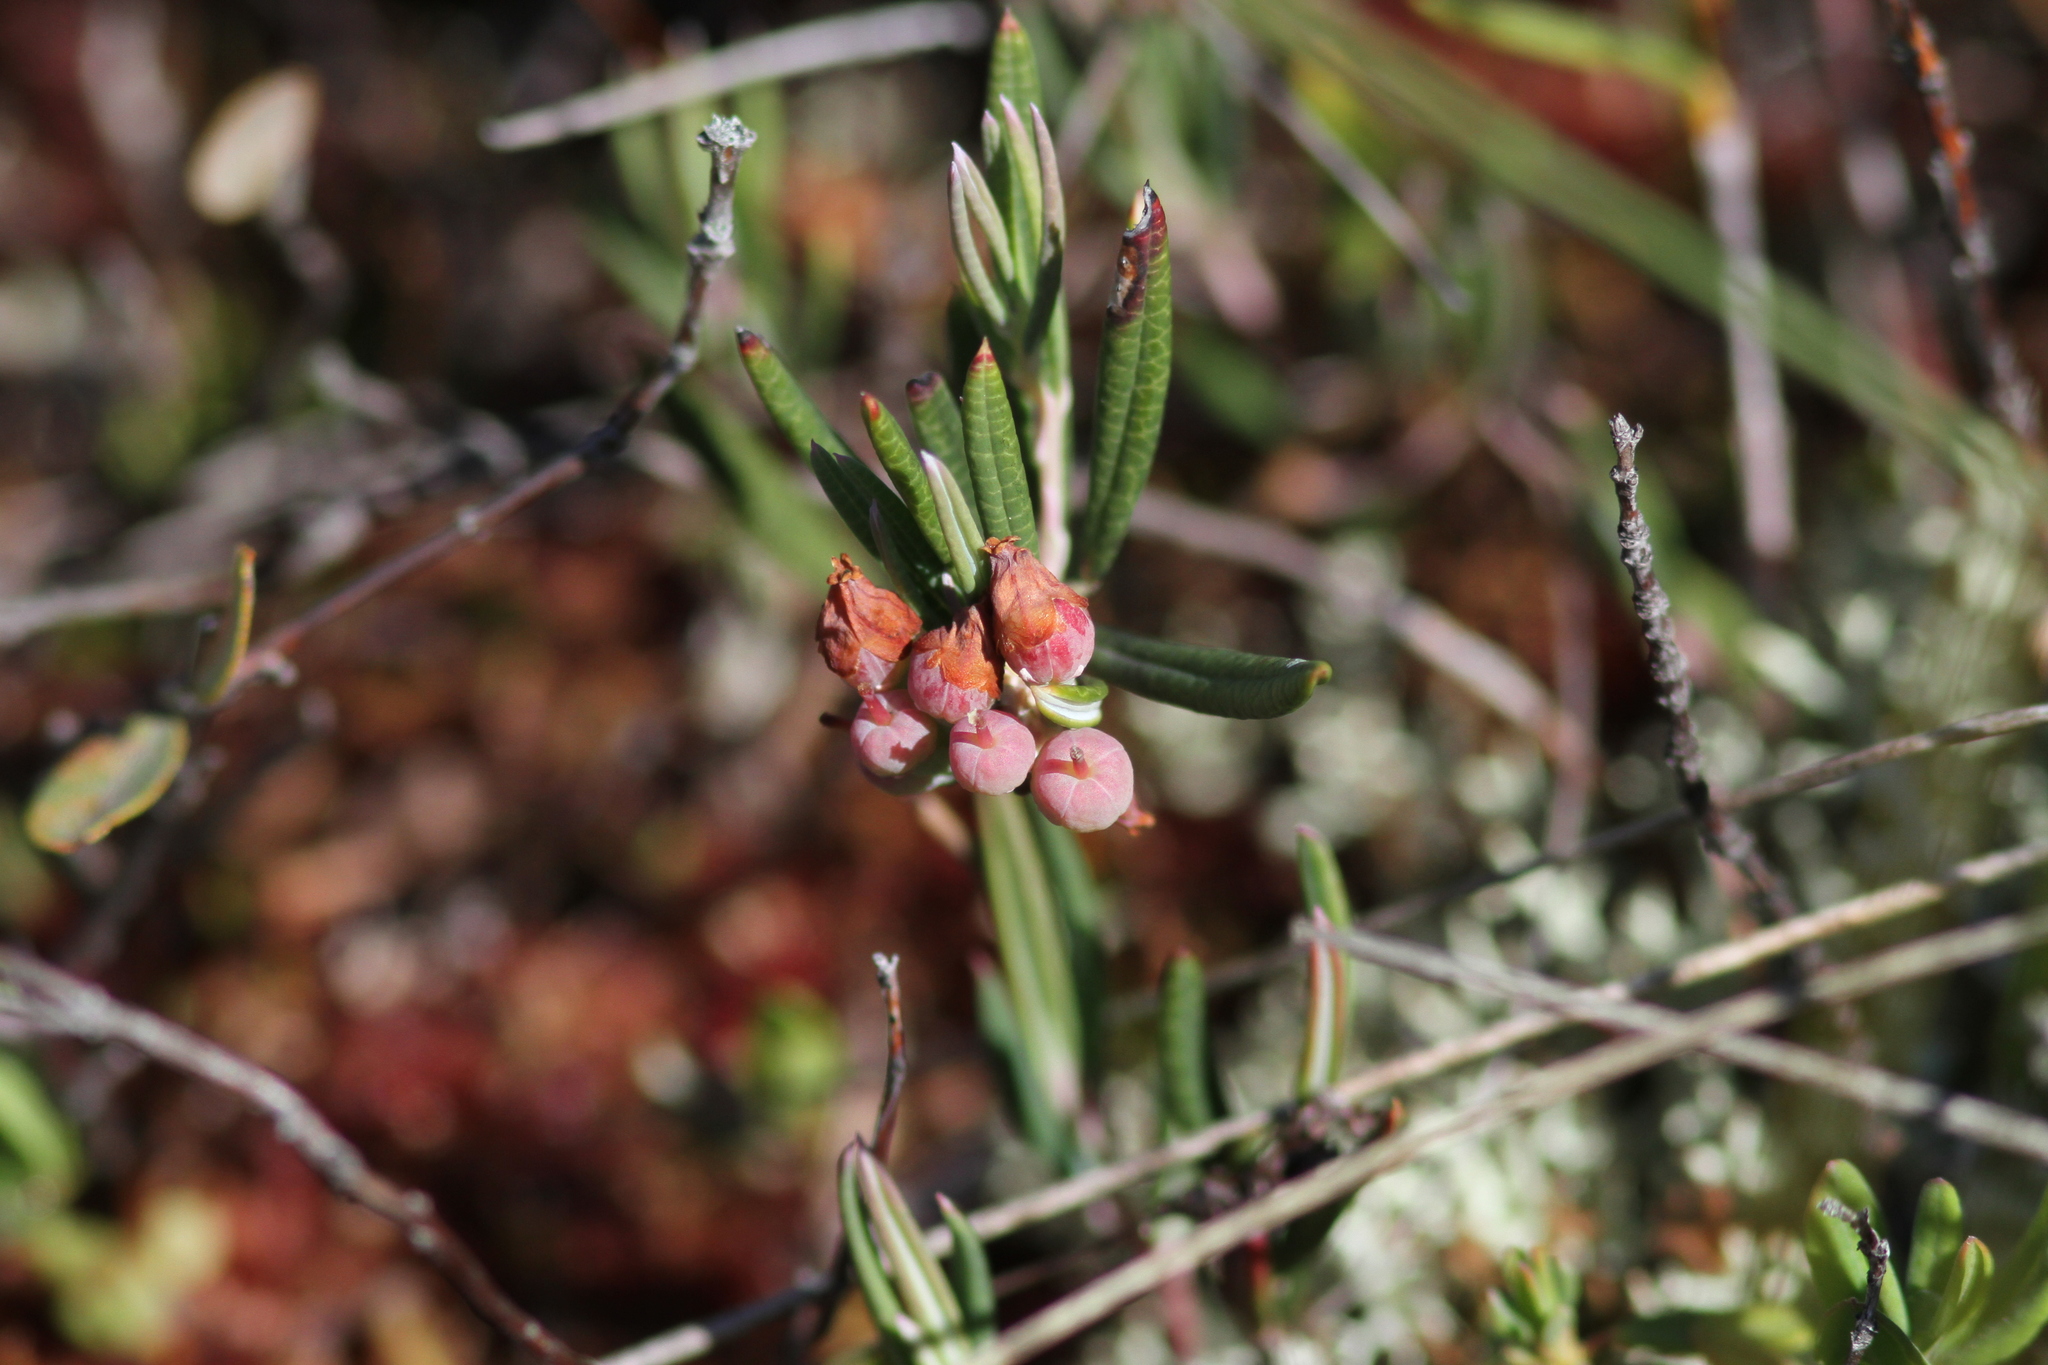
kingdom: Plantae
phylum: Tracheophyta
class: Magnoliopsida
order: Ericales
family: Ericaceae
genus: Andromeda
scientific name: Andromeda polifolia
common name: Bog-rosemary
